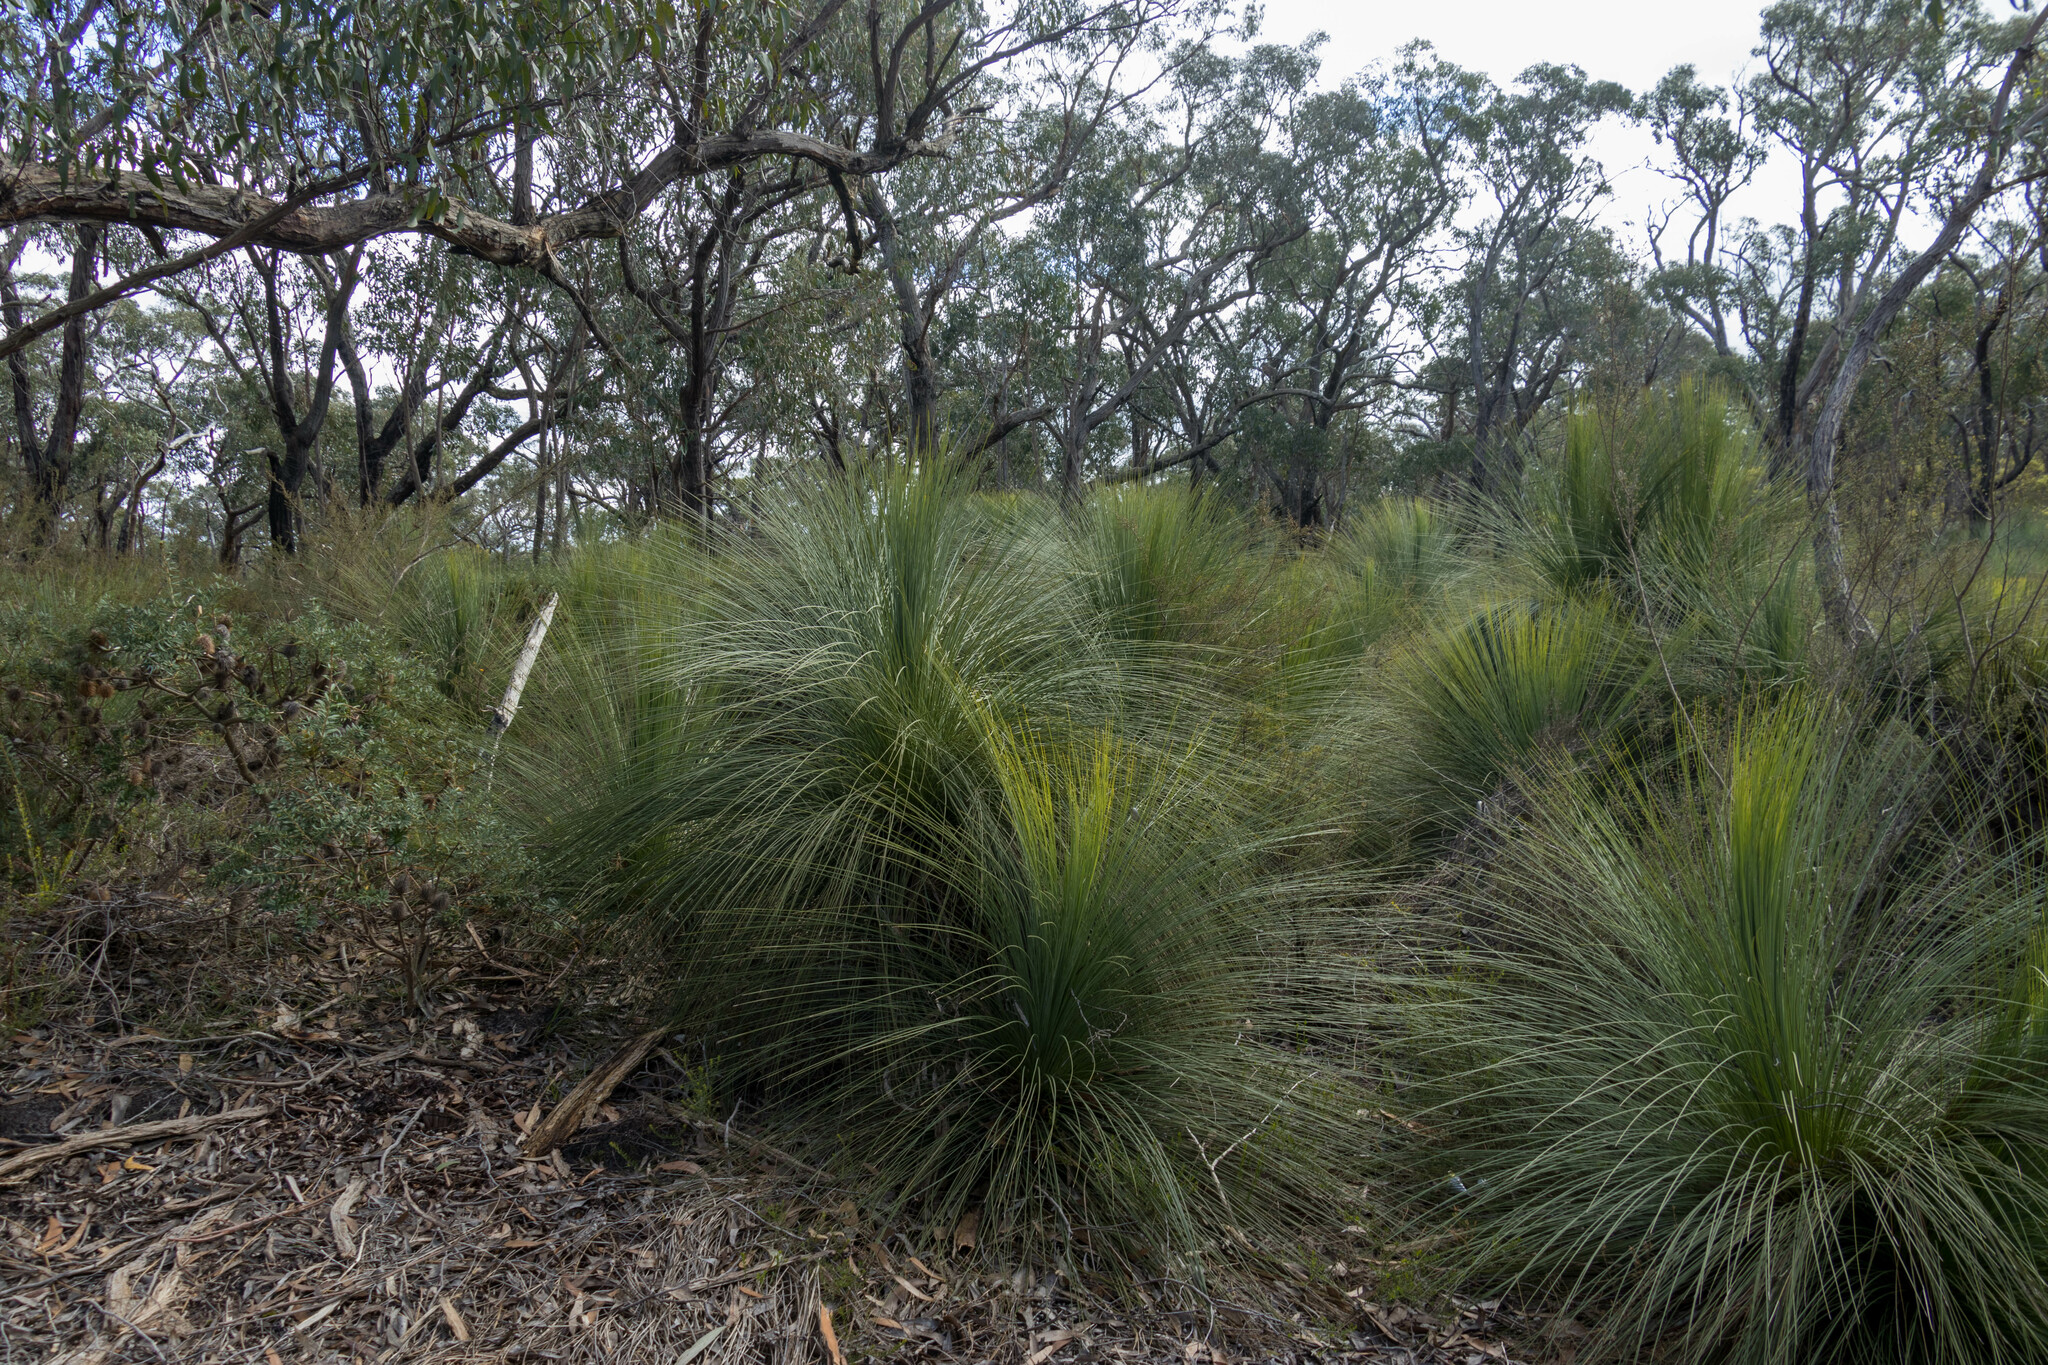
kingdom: Plantae
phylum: Tracheophyta
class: Liliopsida
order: Asparagales
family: Asphodelaceae
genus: Xanthorrhoea
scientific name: Xanthorrhoea australis
